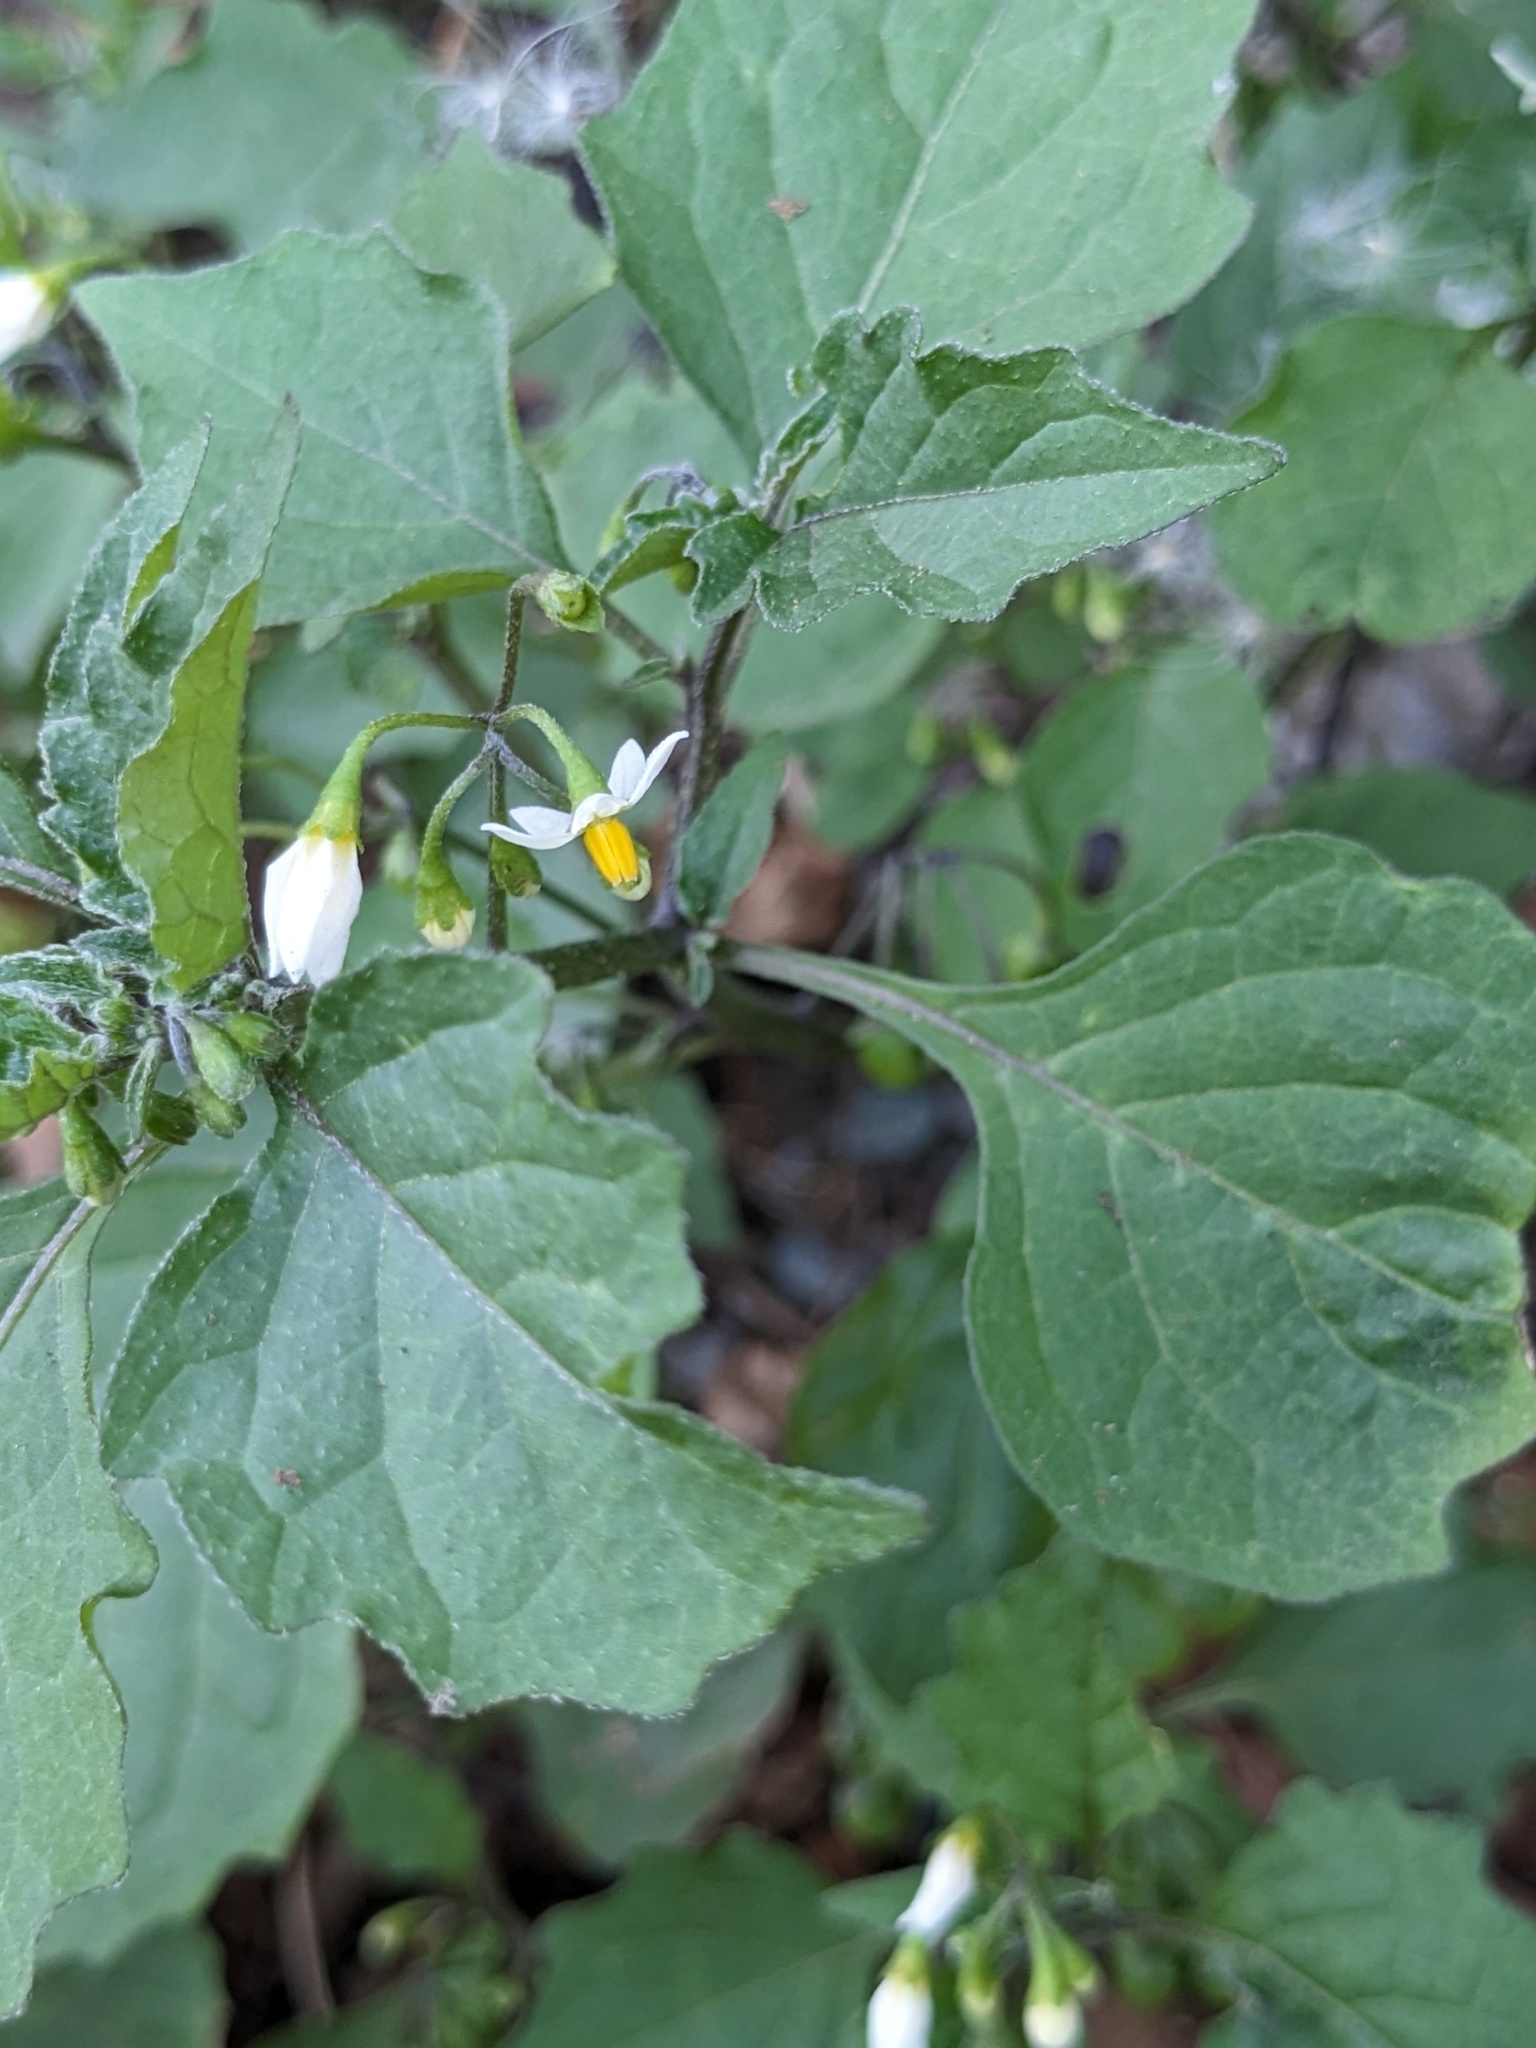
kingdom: Plantae
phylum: Tracheophyta
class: Magnoliopsida
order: Solanales
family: Solanaceae
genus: Solanum
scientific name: Solanum nigrum
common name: Black nightshade
